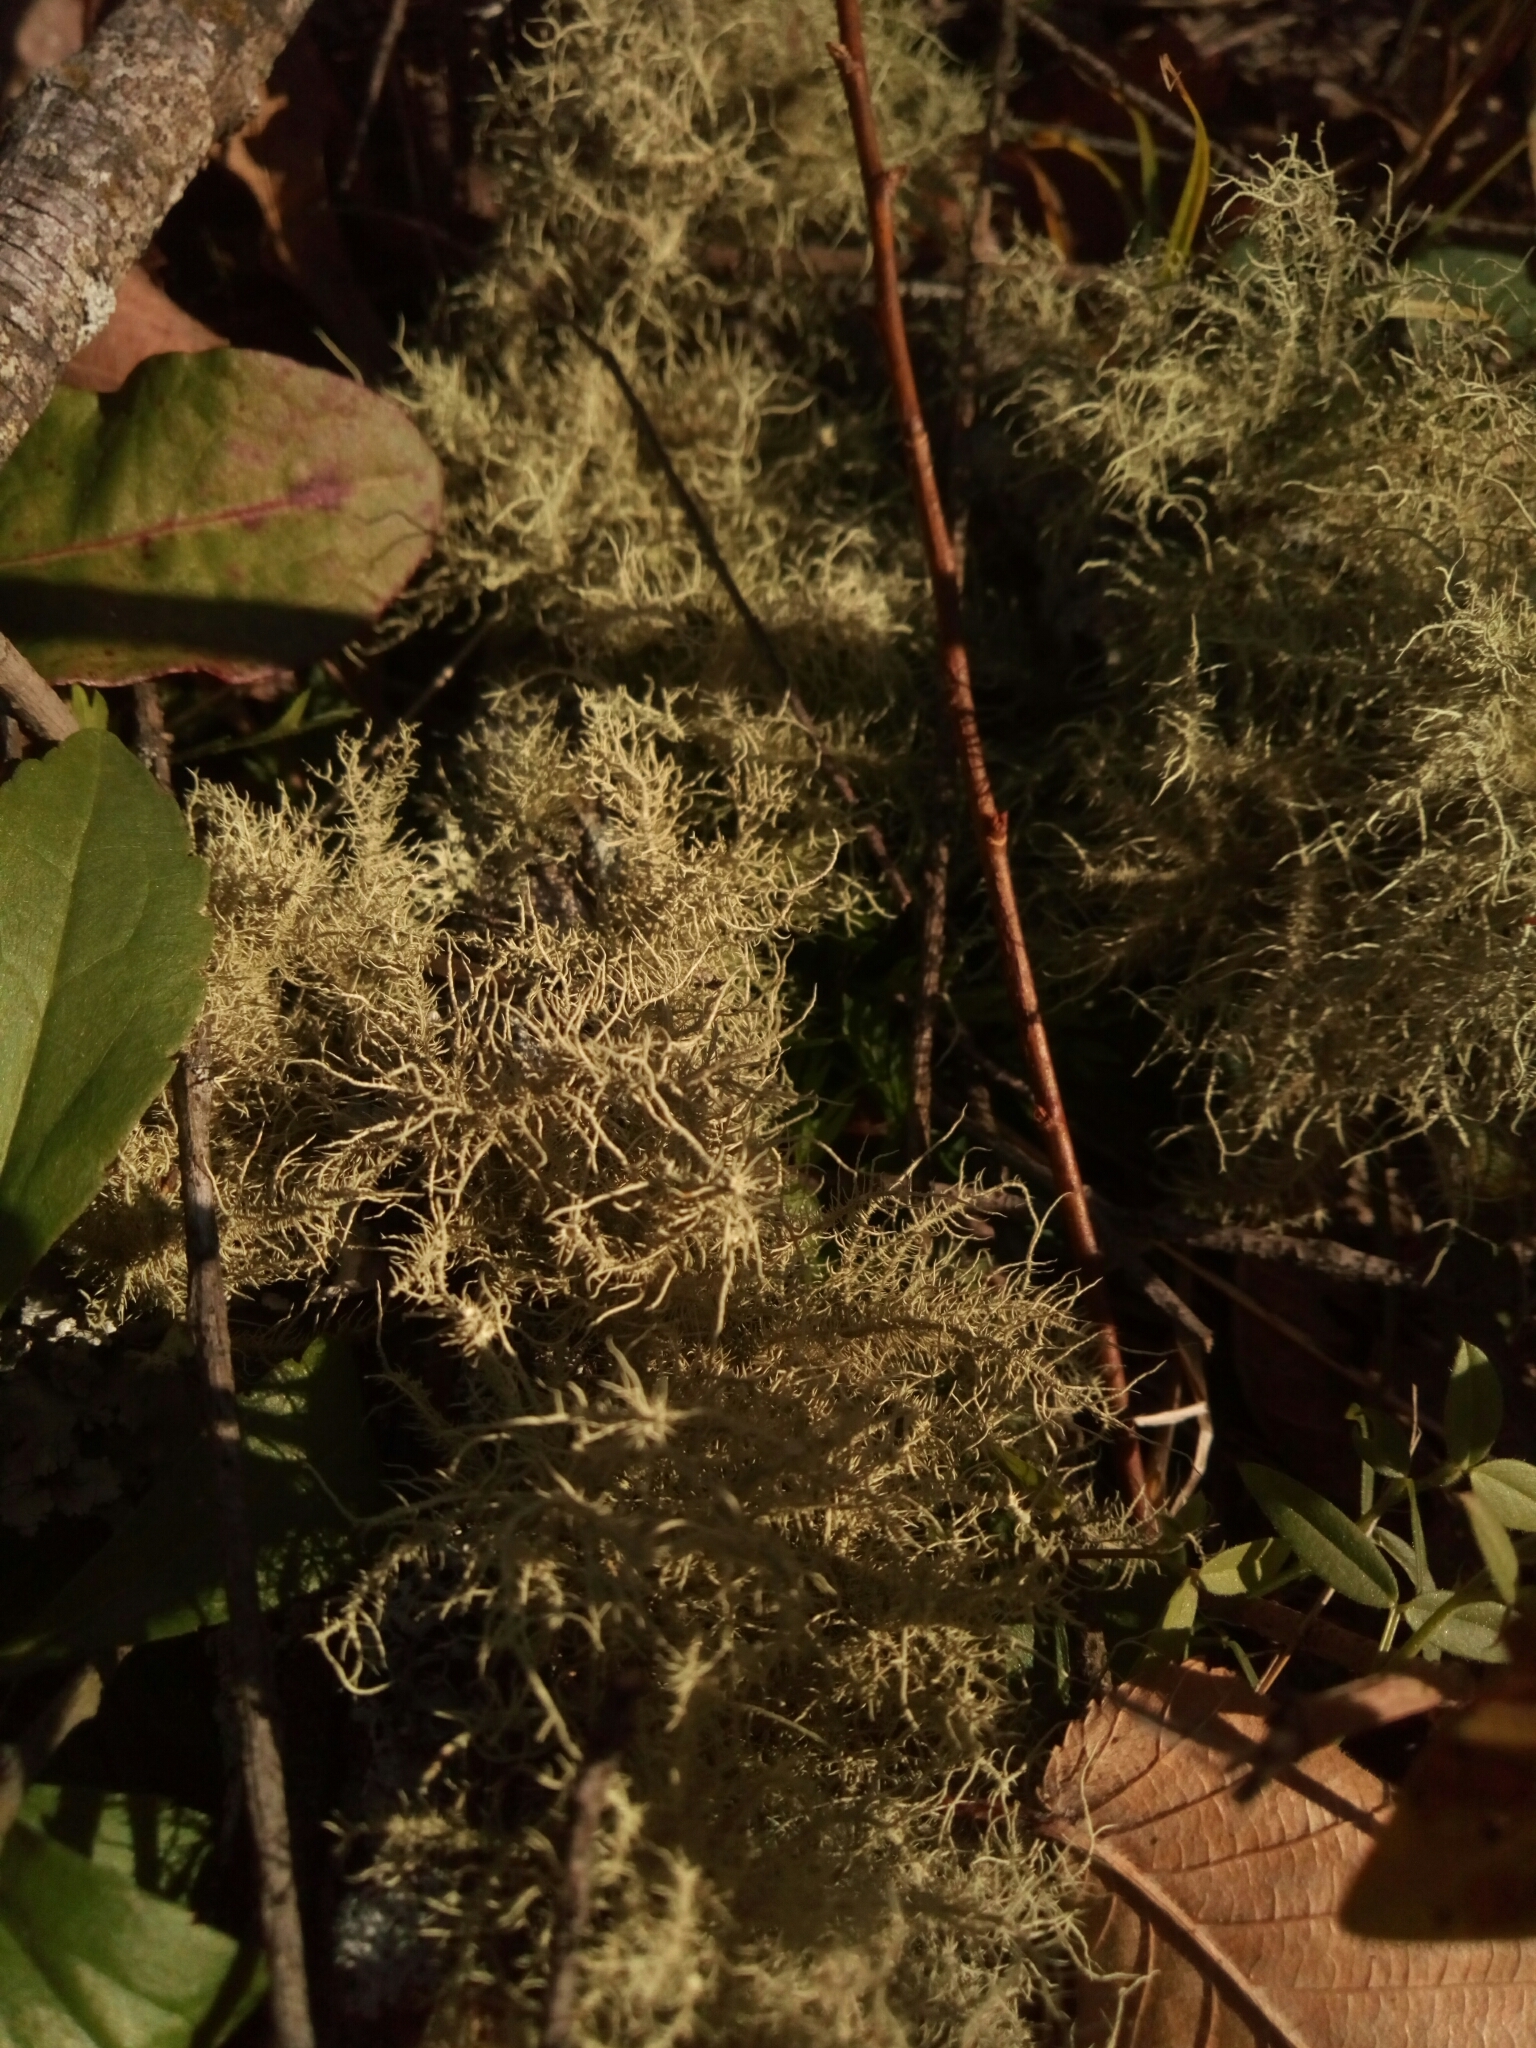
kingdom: Fungi
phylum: Ascomycota
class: Lecanoromycetes
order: Lecanorales
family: Parmeliaceae
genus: Usnea
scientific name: Usnea strigosa
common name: Bushy beard lichen
